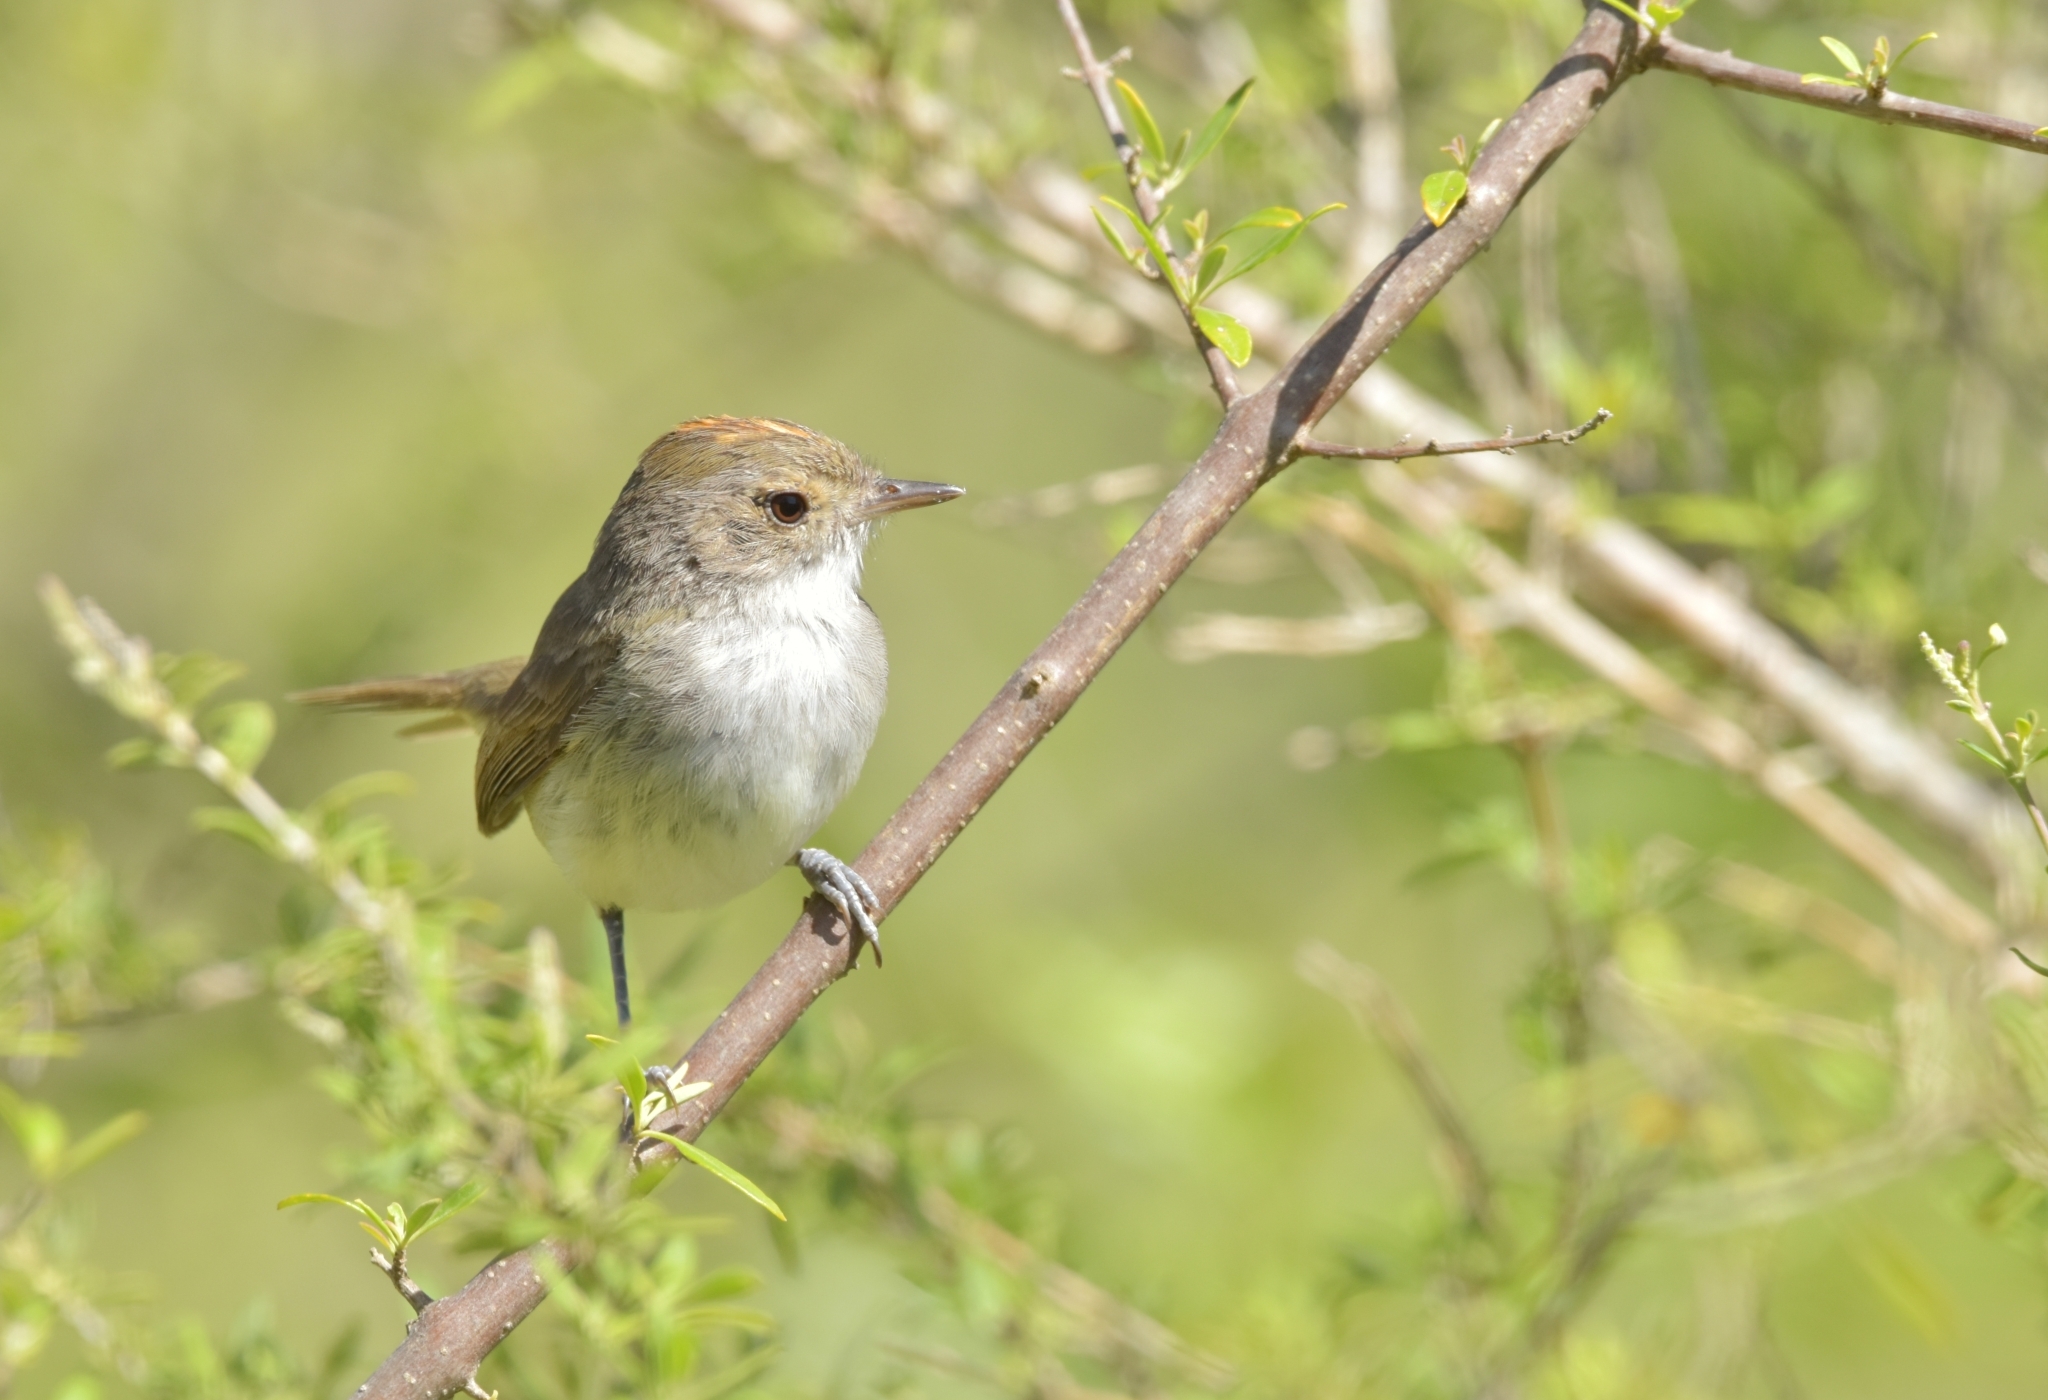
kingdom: Animalia
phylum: Chordata
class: Aves
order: Passeriformes
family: Tyrannidae
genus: Euscarthmus
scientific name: Euscarthmus meloryphus
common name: Tawny-crowned pygmy tyrant
